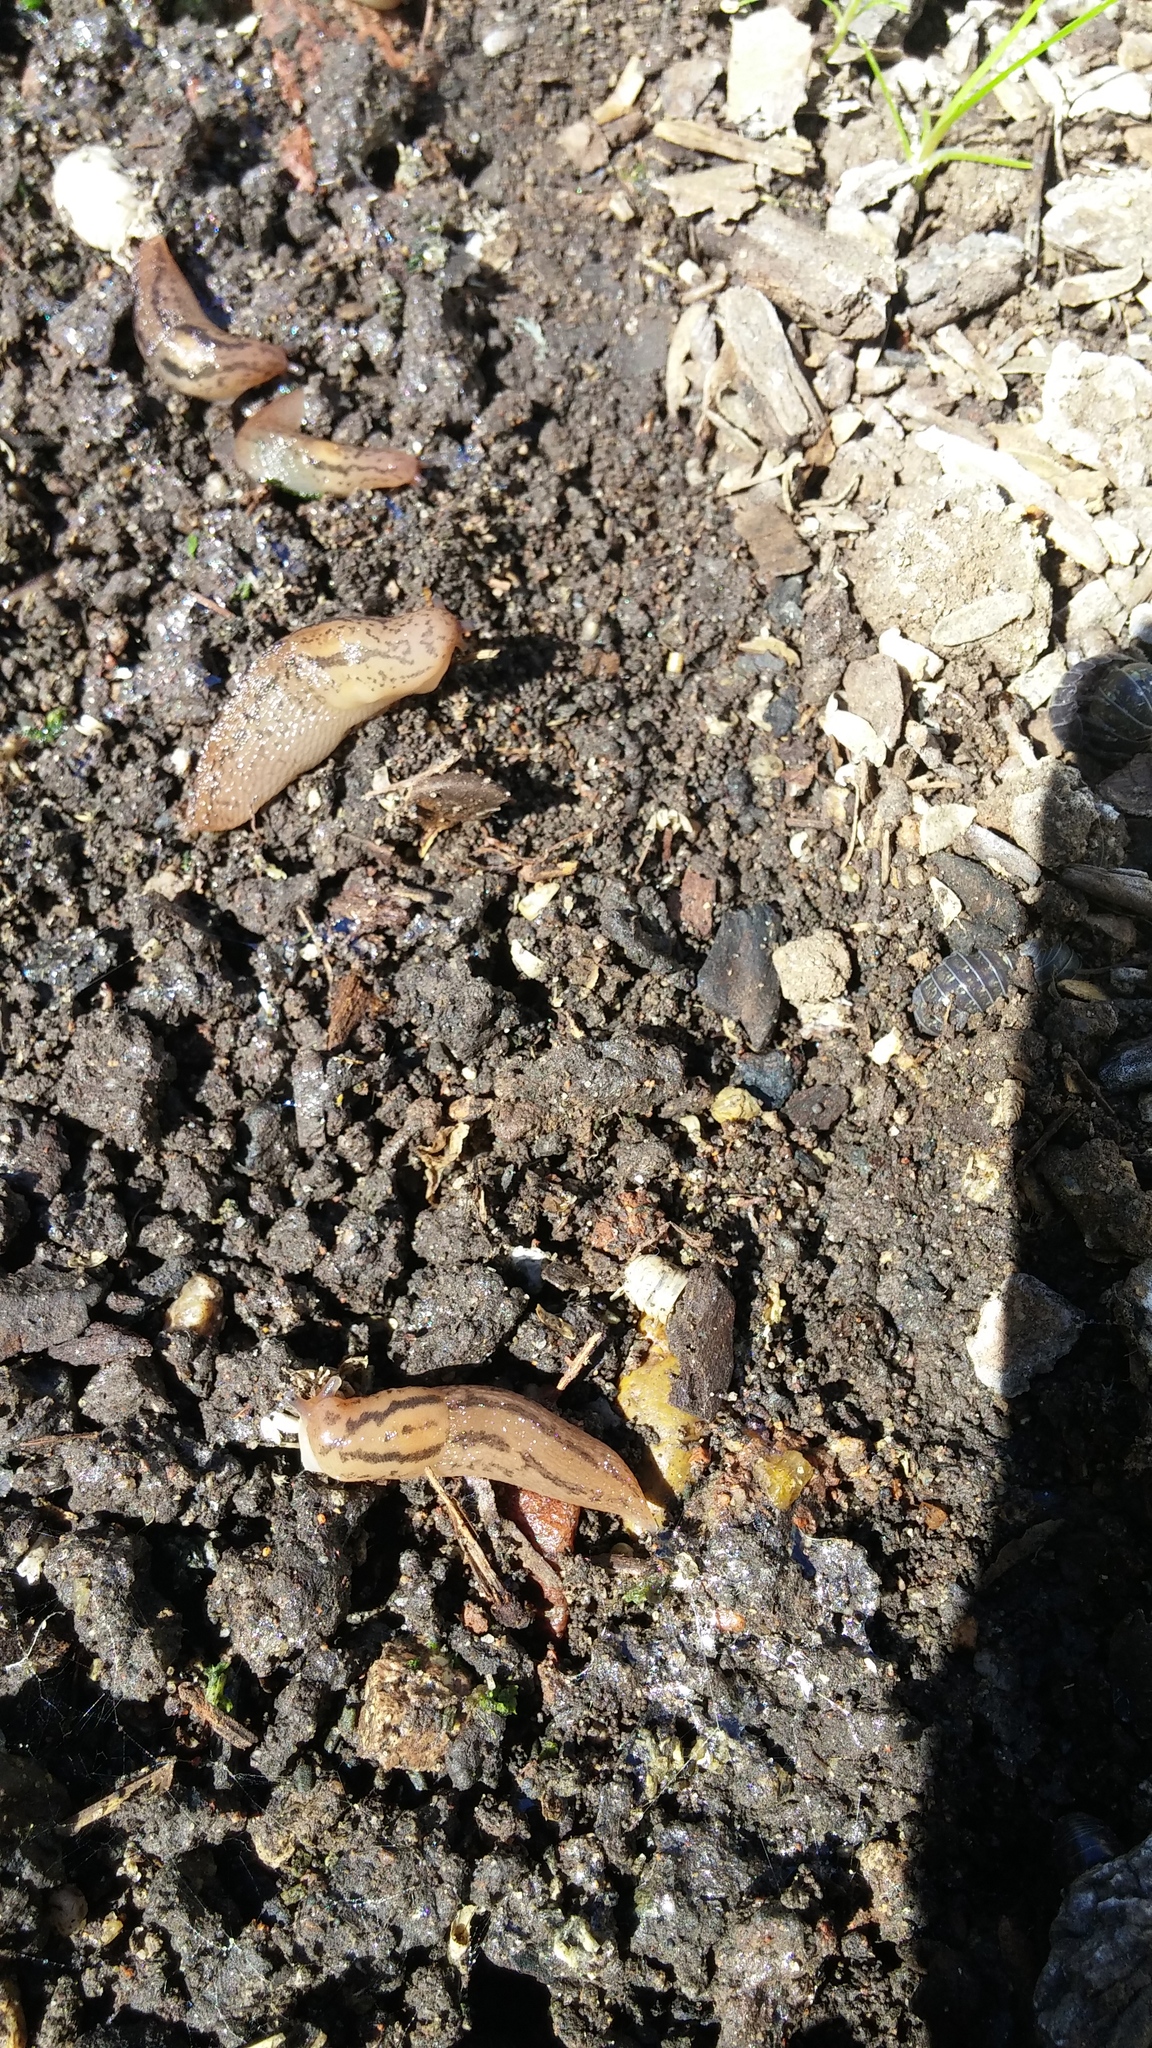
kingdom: Animalia
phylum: Mollusca
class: Gastropoda
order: Stylommatophora
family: Limacidae
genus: Ambigolimax
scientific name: Ambigolimax
